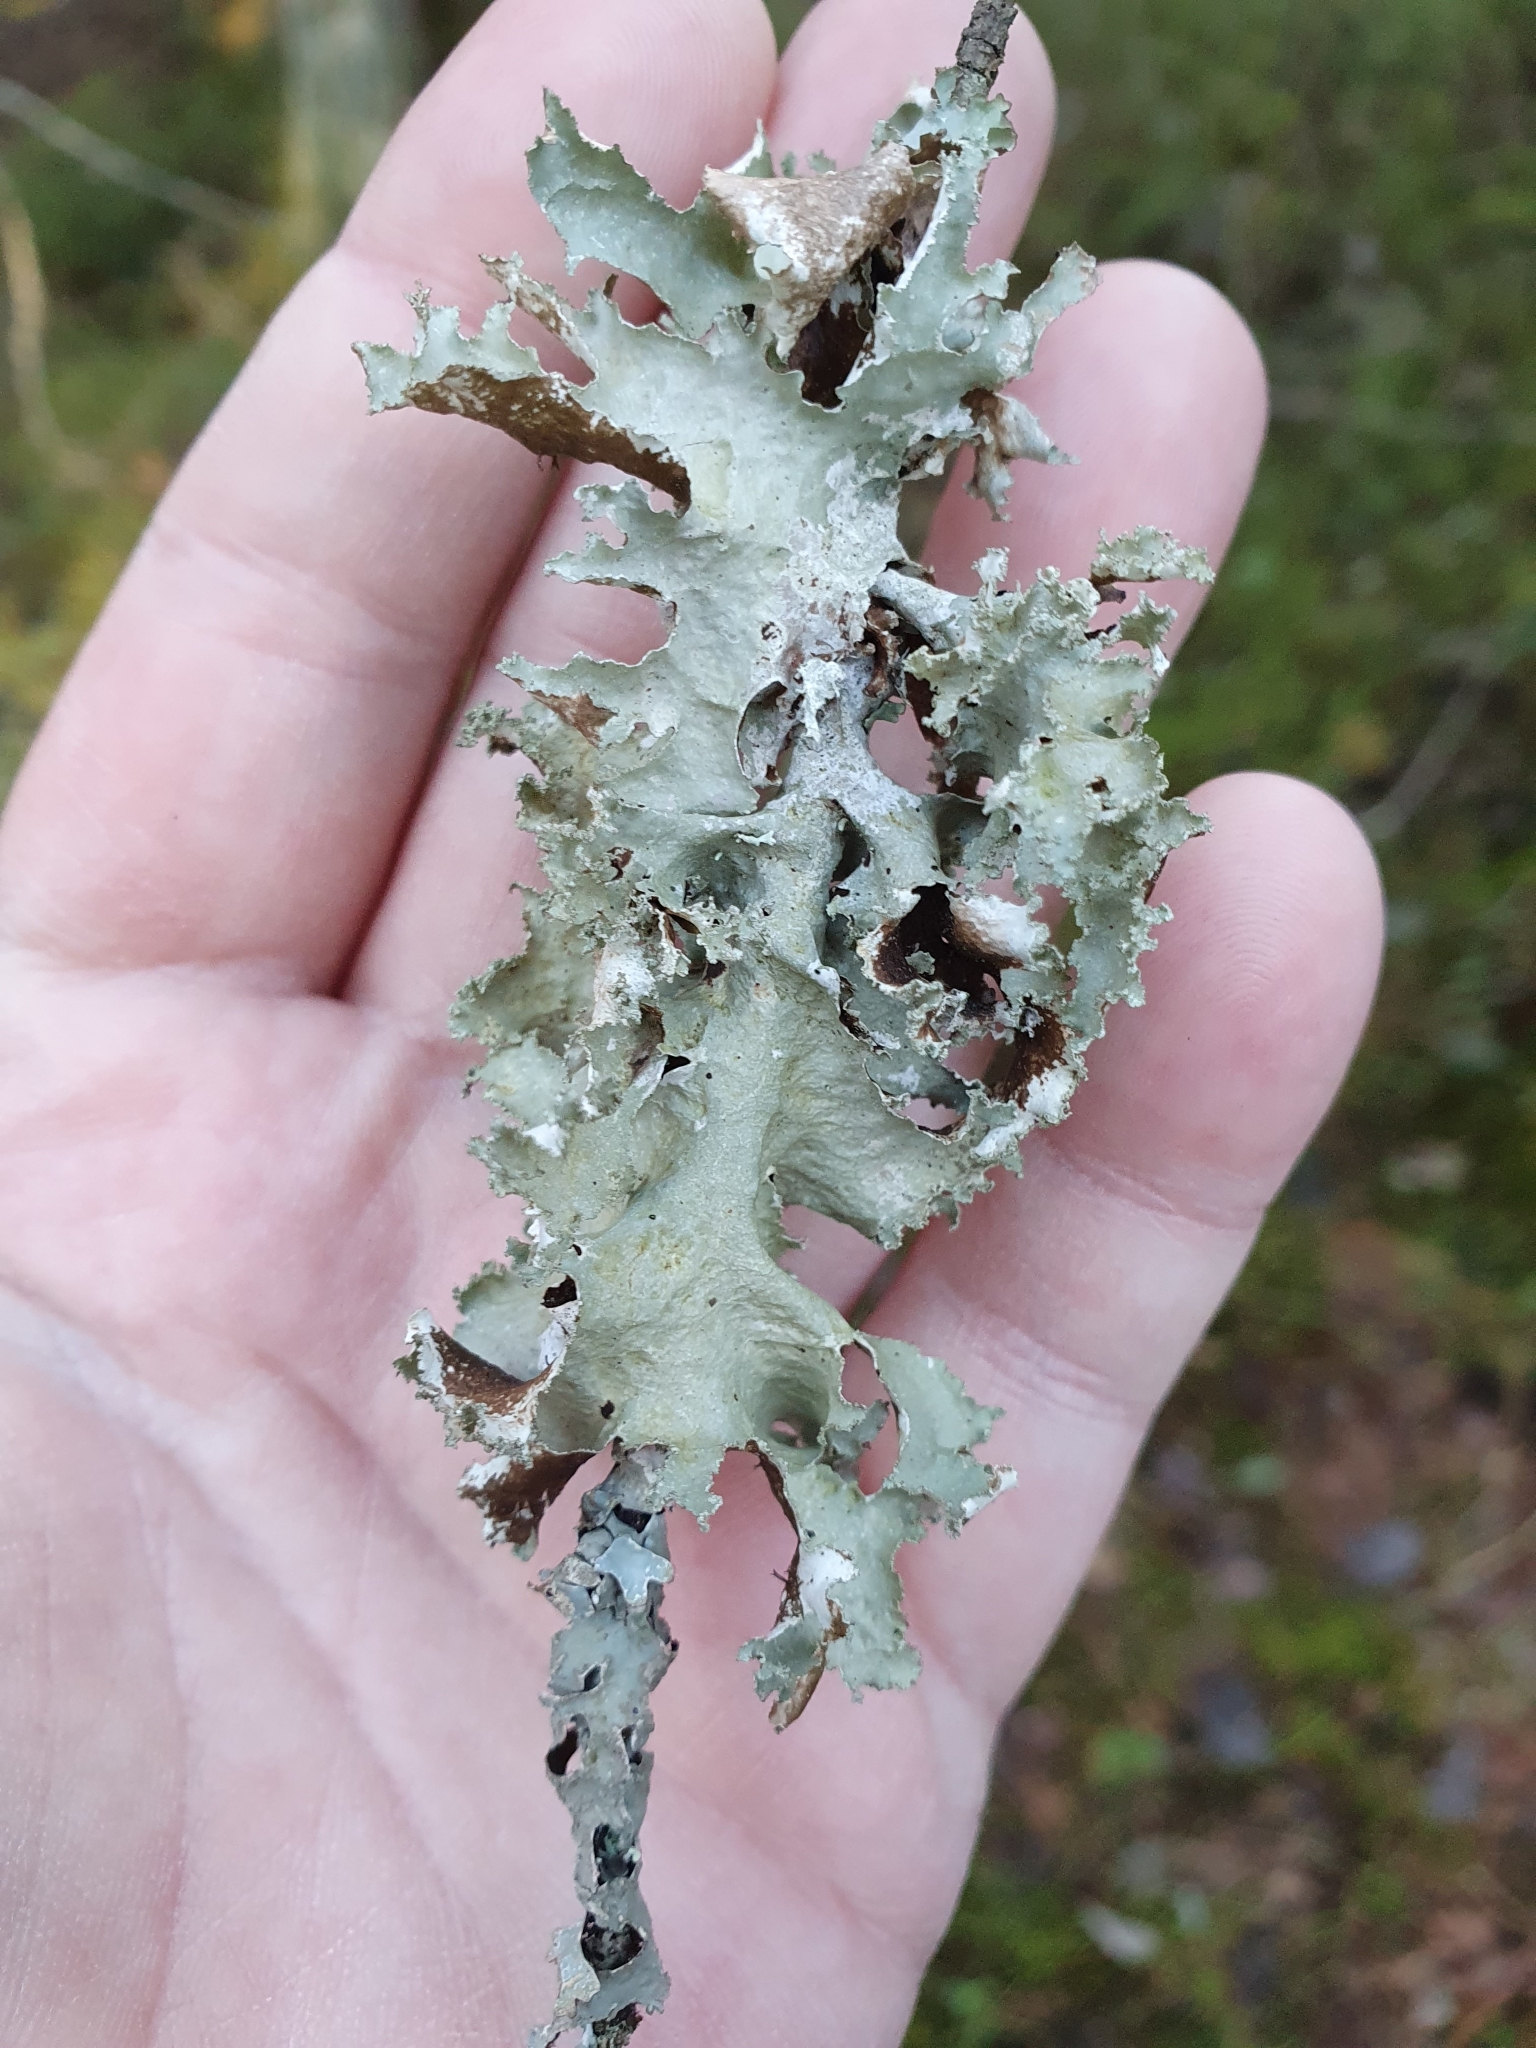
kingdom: Fungi
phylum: Ascomycota
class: Lecanoromycetes
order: Lecanorales
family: Parmeliaceae
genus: Platismatia
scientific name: Platismatia glauca
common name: Varied rag lichen
